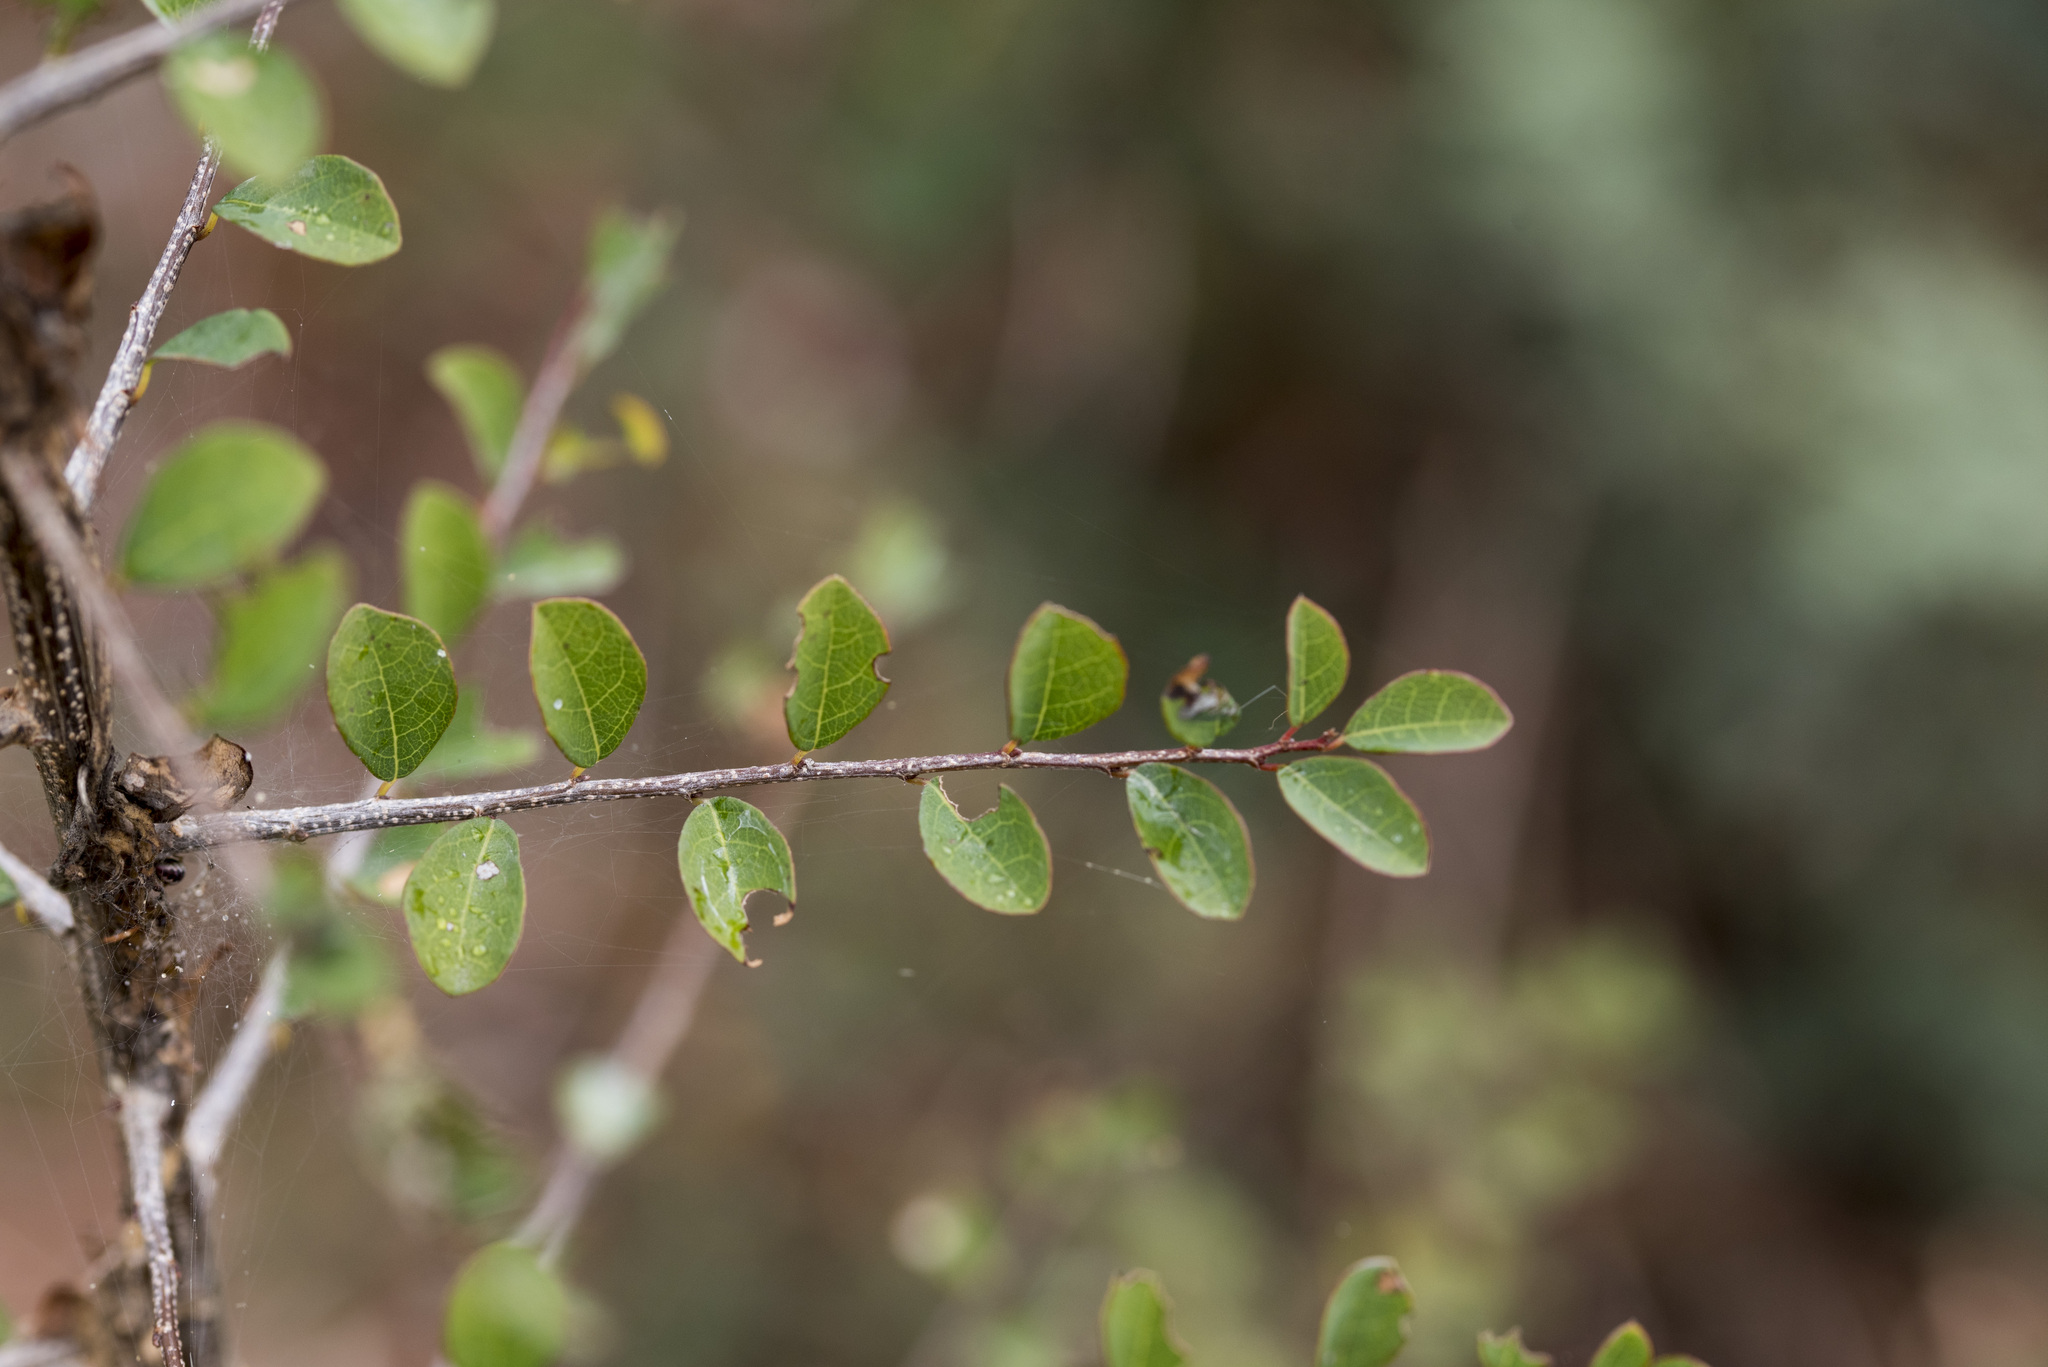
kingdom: Plantae
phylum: Tracheophyta
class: Magnoliopsida
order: Malpighiales
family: Phyllanthaceae
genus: Flueggea
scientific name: Flueggea virosa
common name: Common bushweed
